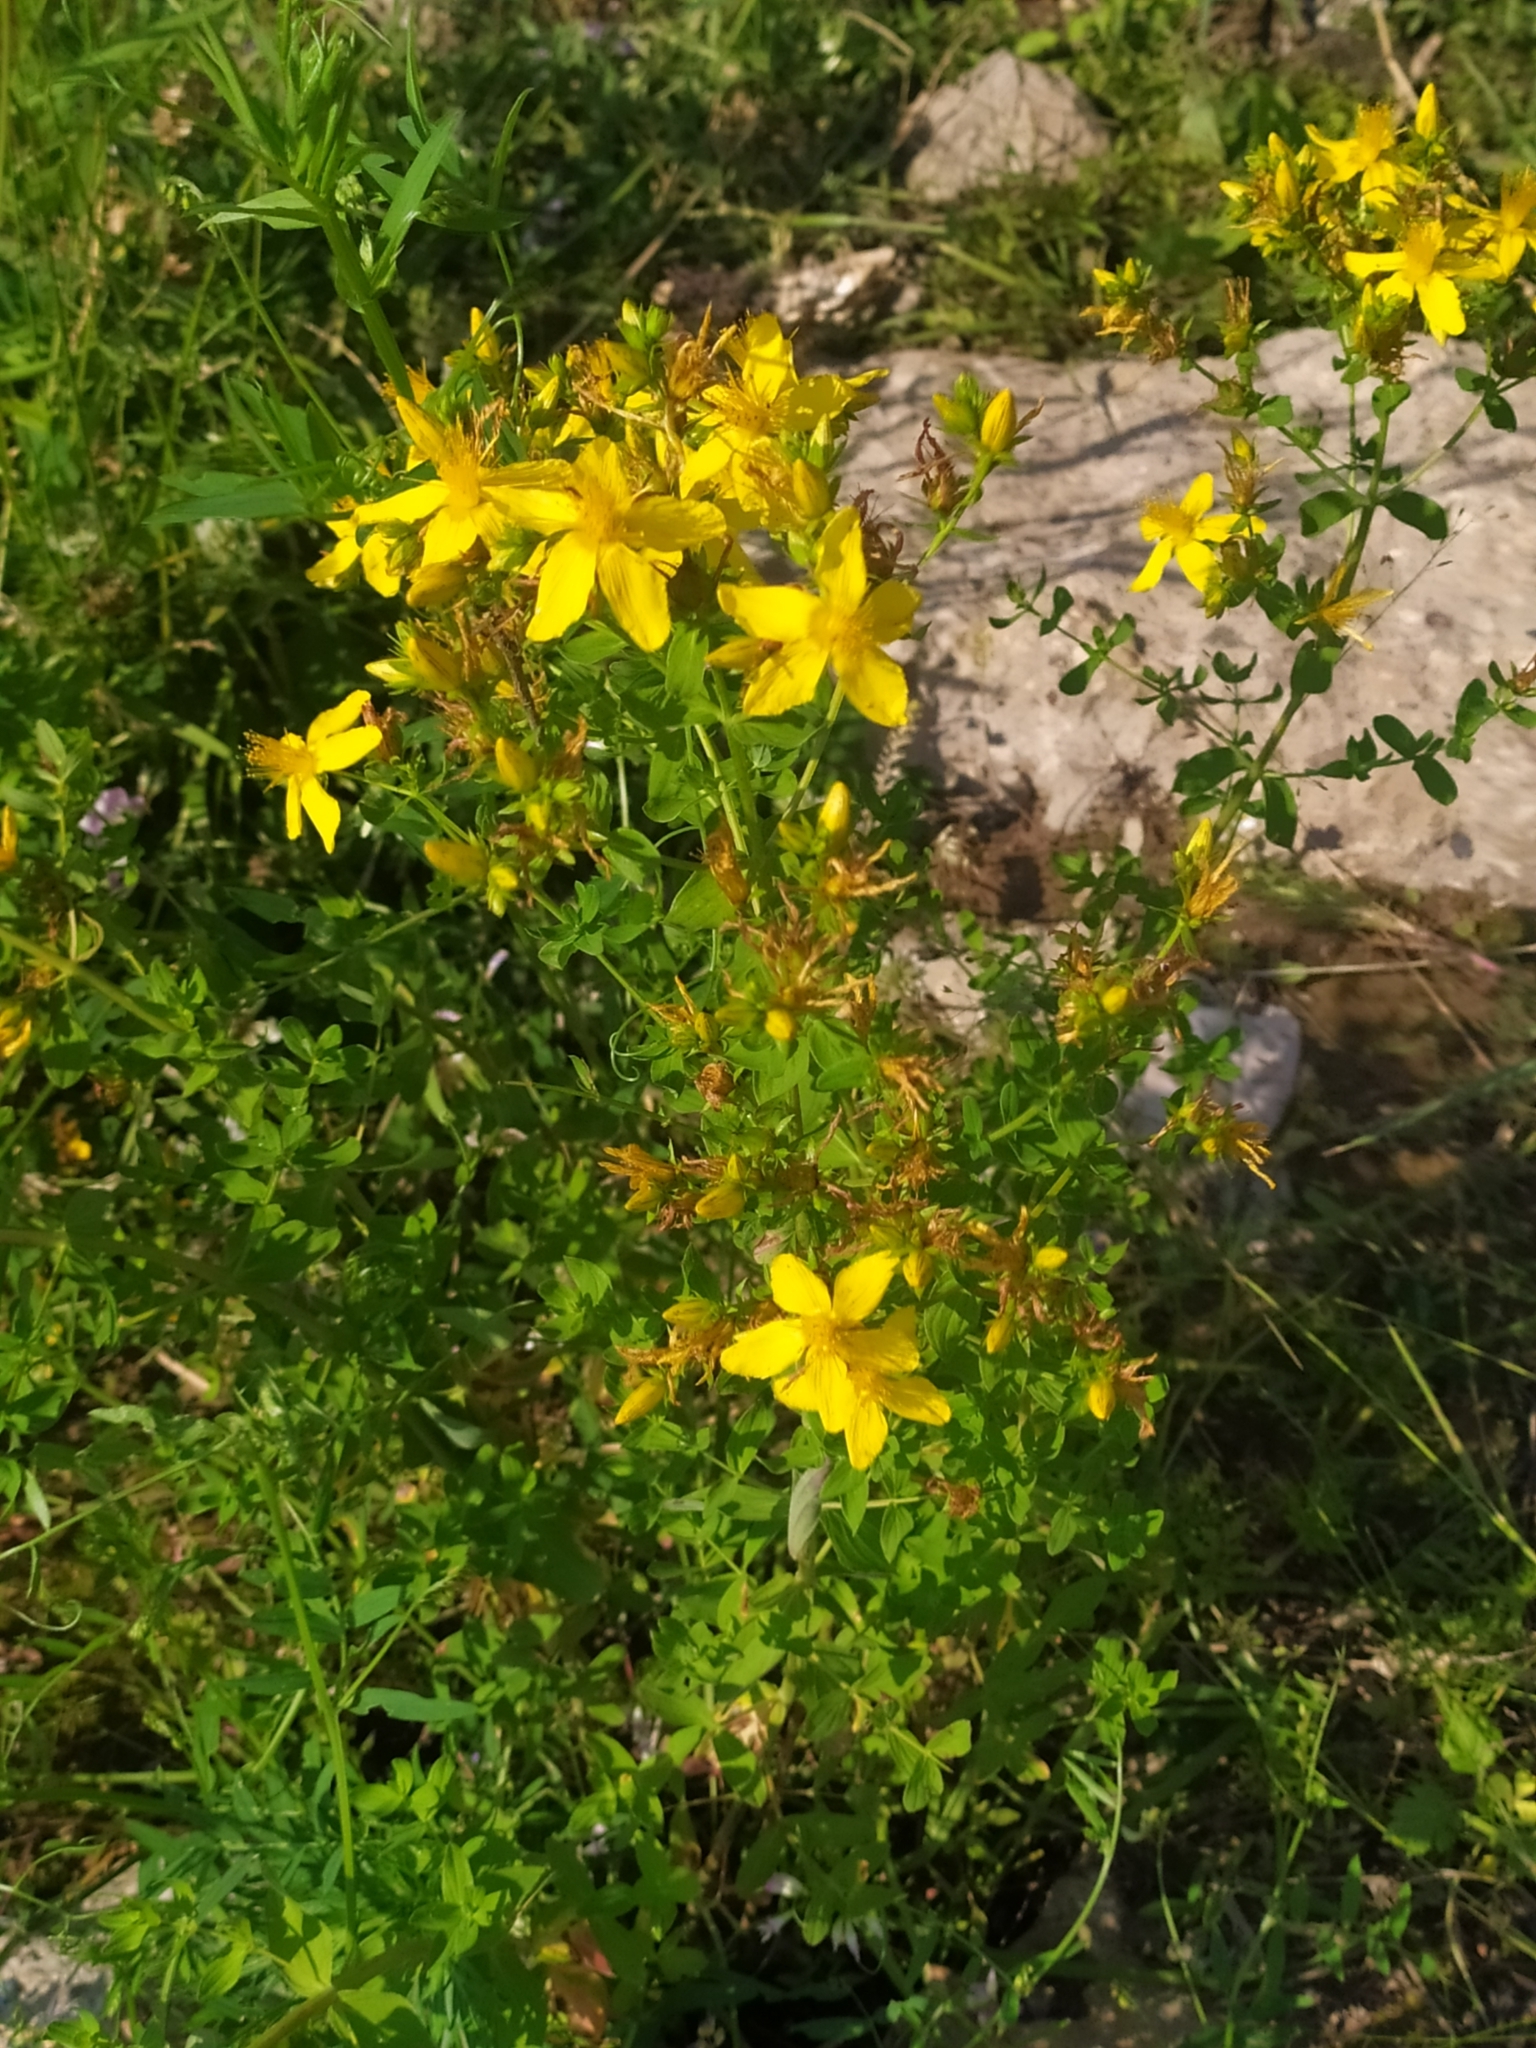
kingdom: Plantae
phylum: Tracheophyta
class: Magnoliopsida
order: Malpighiales
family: Hypericaceae
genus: Hypericum
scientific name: Hypericum perforatum
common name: Common st. johnswort
